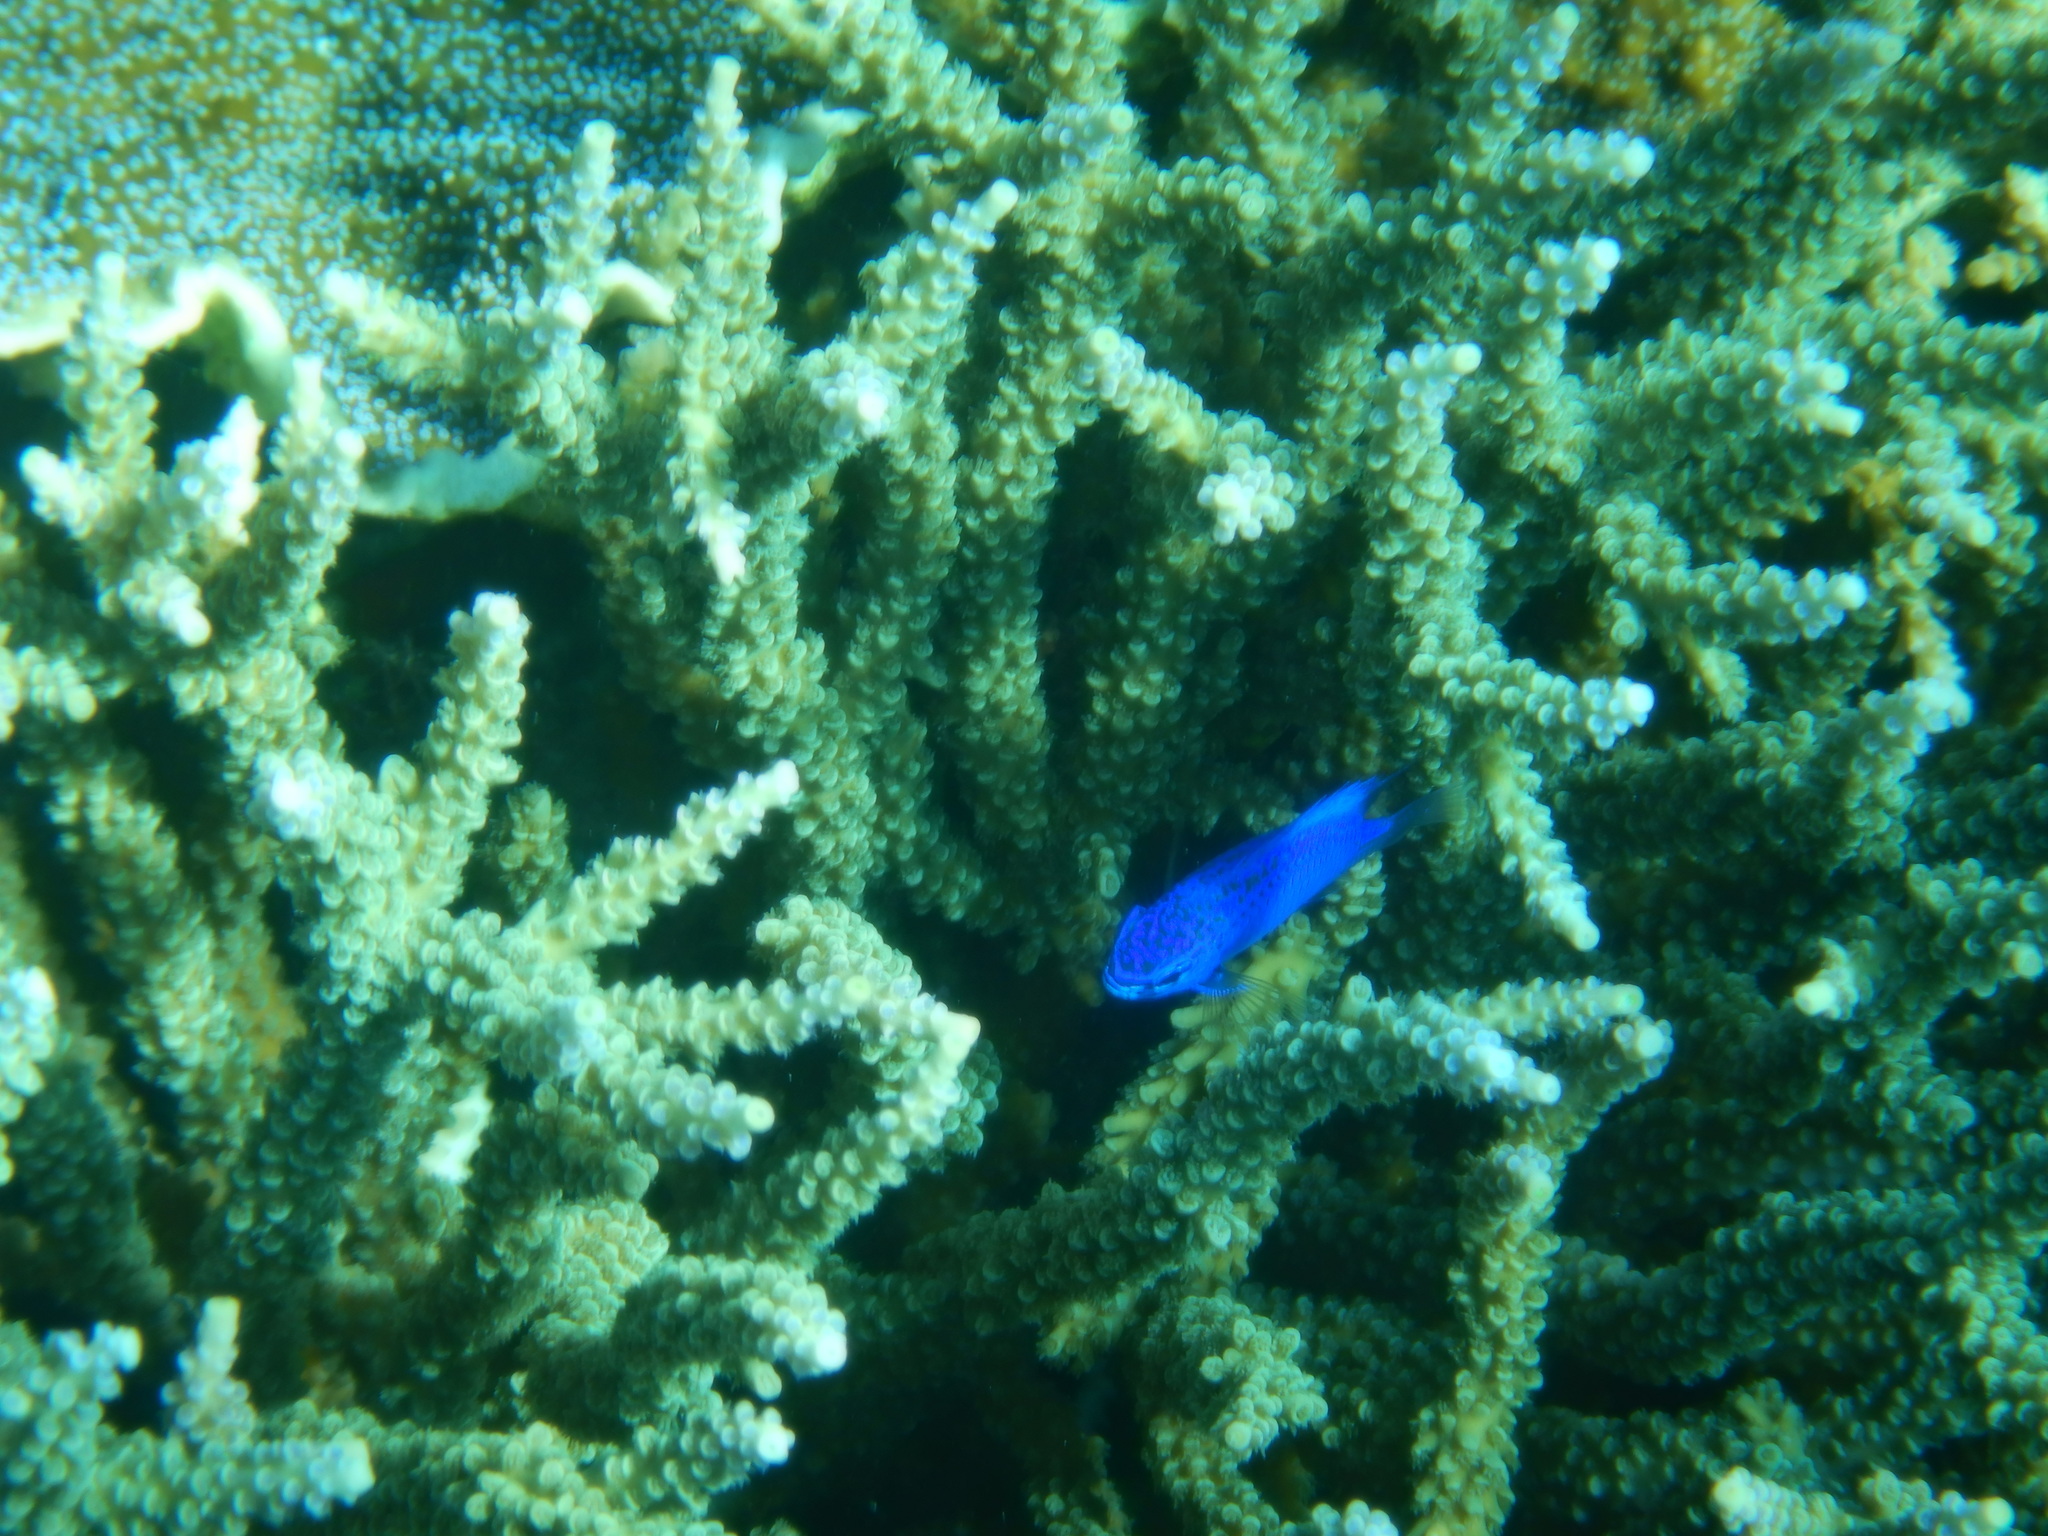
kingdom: Animalia
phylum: Chordata
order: Perciformes
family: Pomacentridae
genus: Chrysiptera
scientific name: Chrysiptera springeri
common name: Springer's demoiselle
